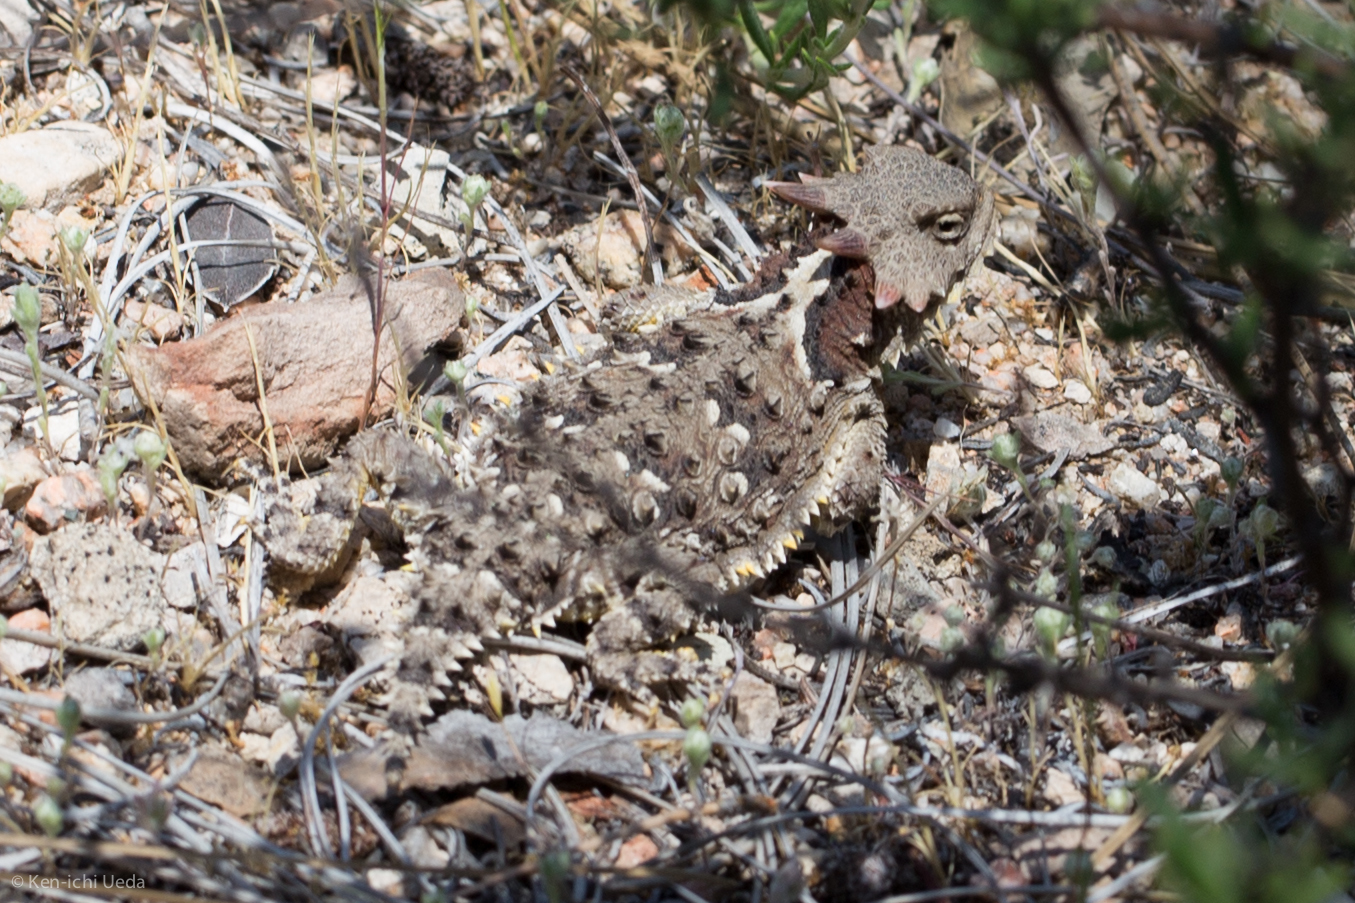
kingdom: Animalia
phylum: Chordata
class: Squamata
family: Phrynosomatidae
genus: Phrynosoma
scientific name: Phrynosoma blainvillii
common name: San diego horned lizard
